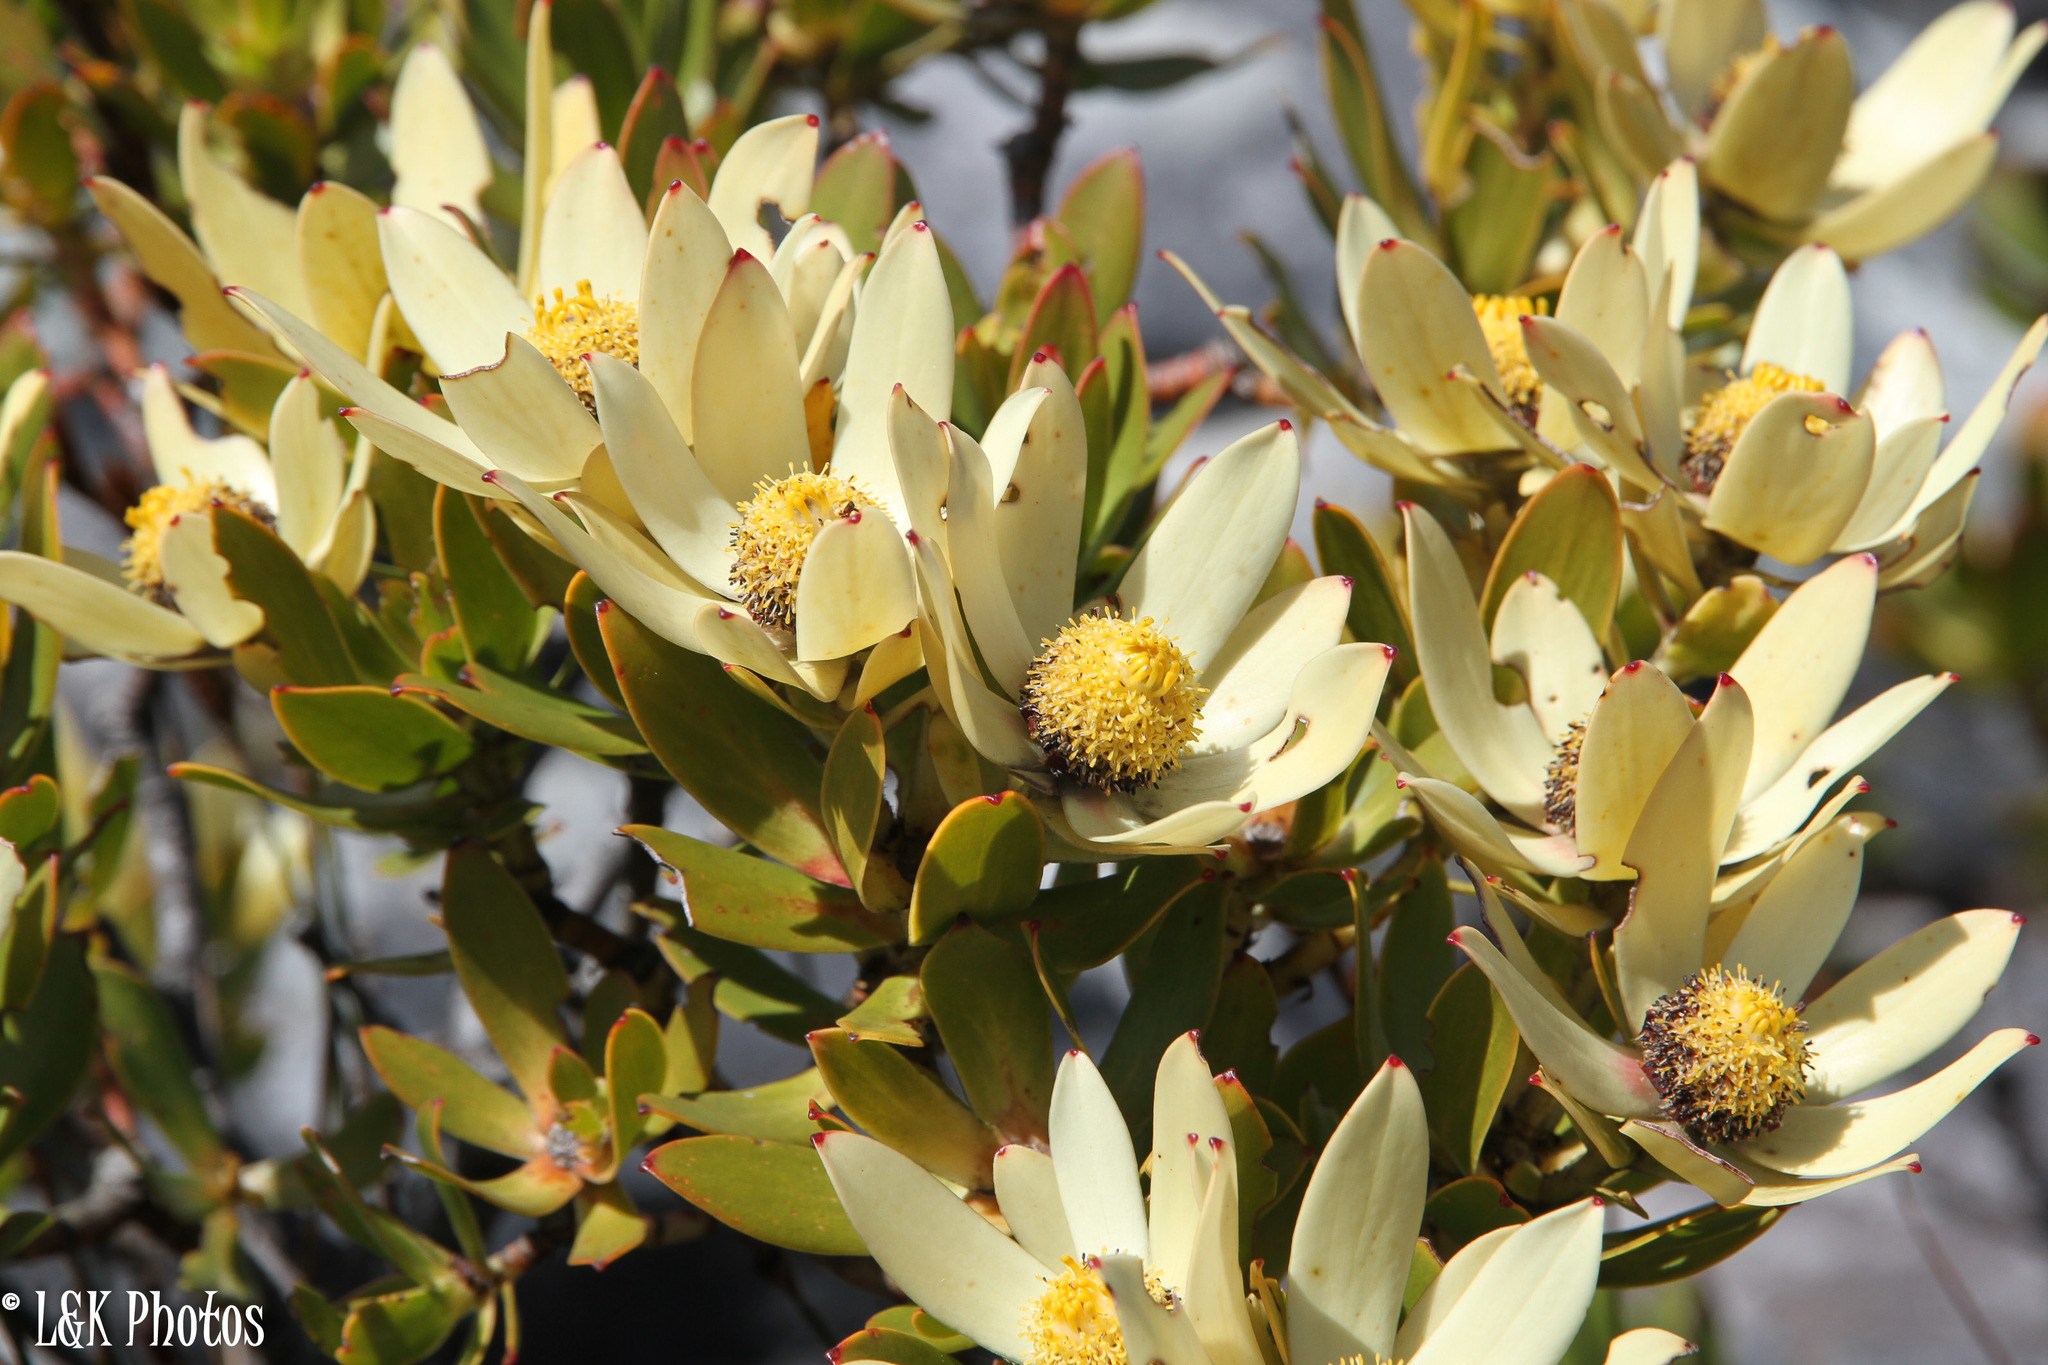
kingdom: Plantae
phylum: Tracheophyta
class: Magnoliopsida
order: Proteales
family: Proteaceae
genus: Leucadendron
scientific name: Leucadendron strobilinum
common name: Mountain rose
